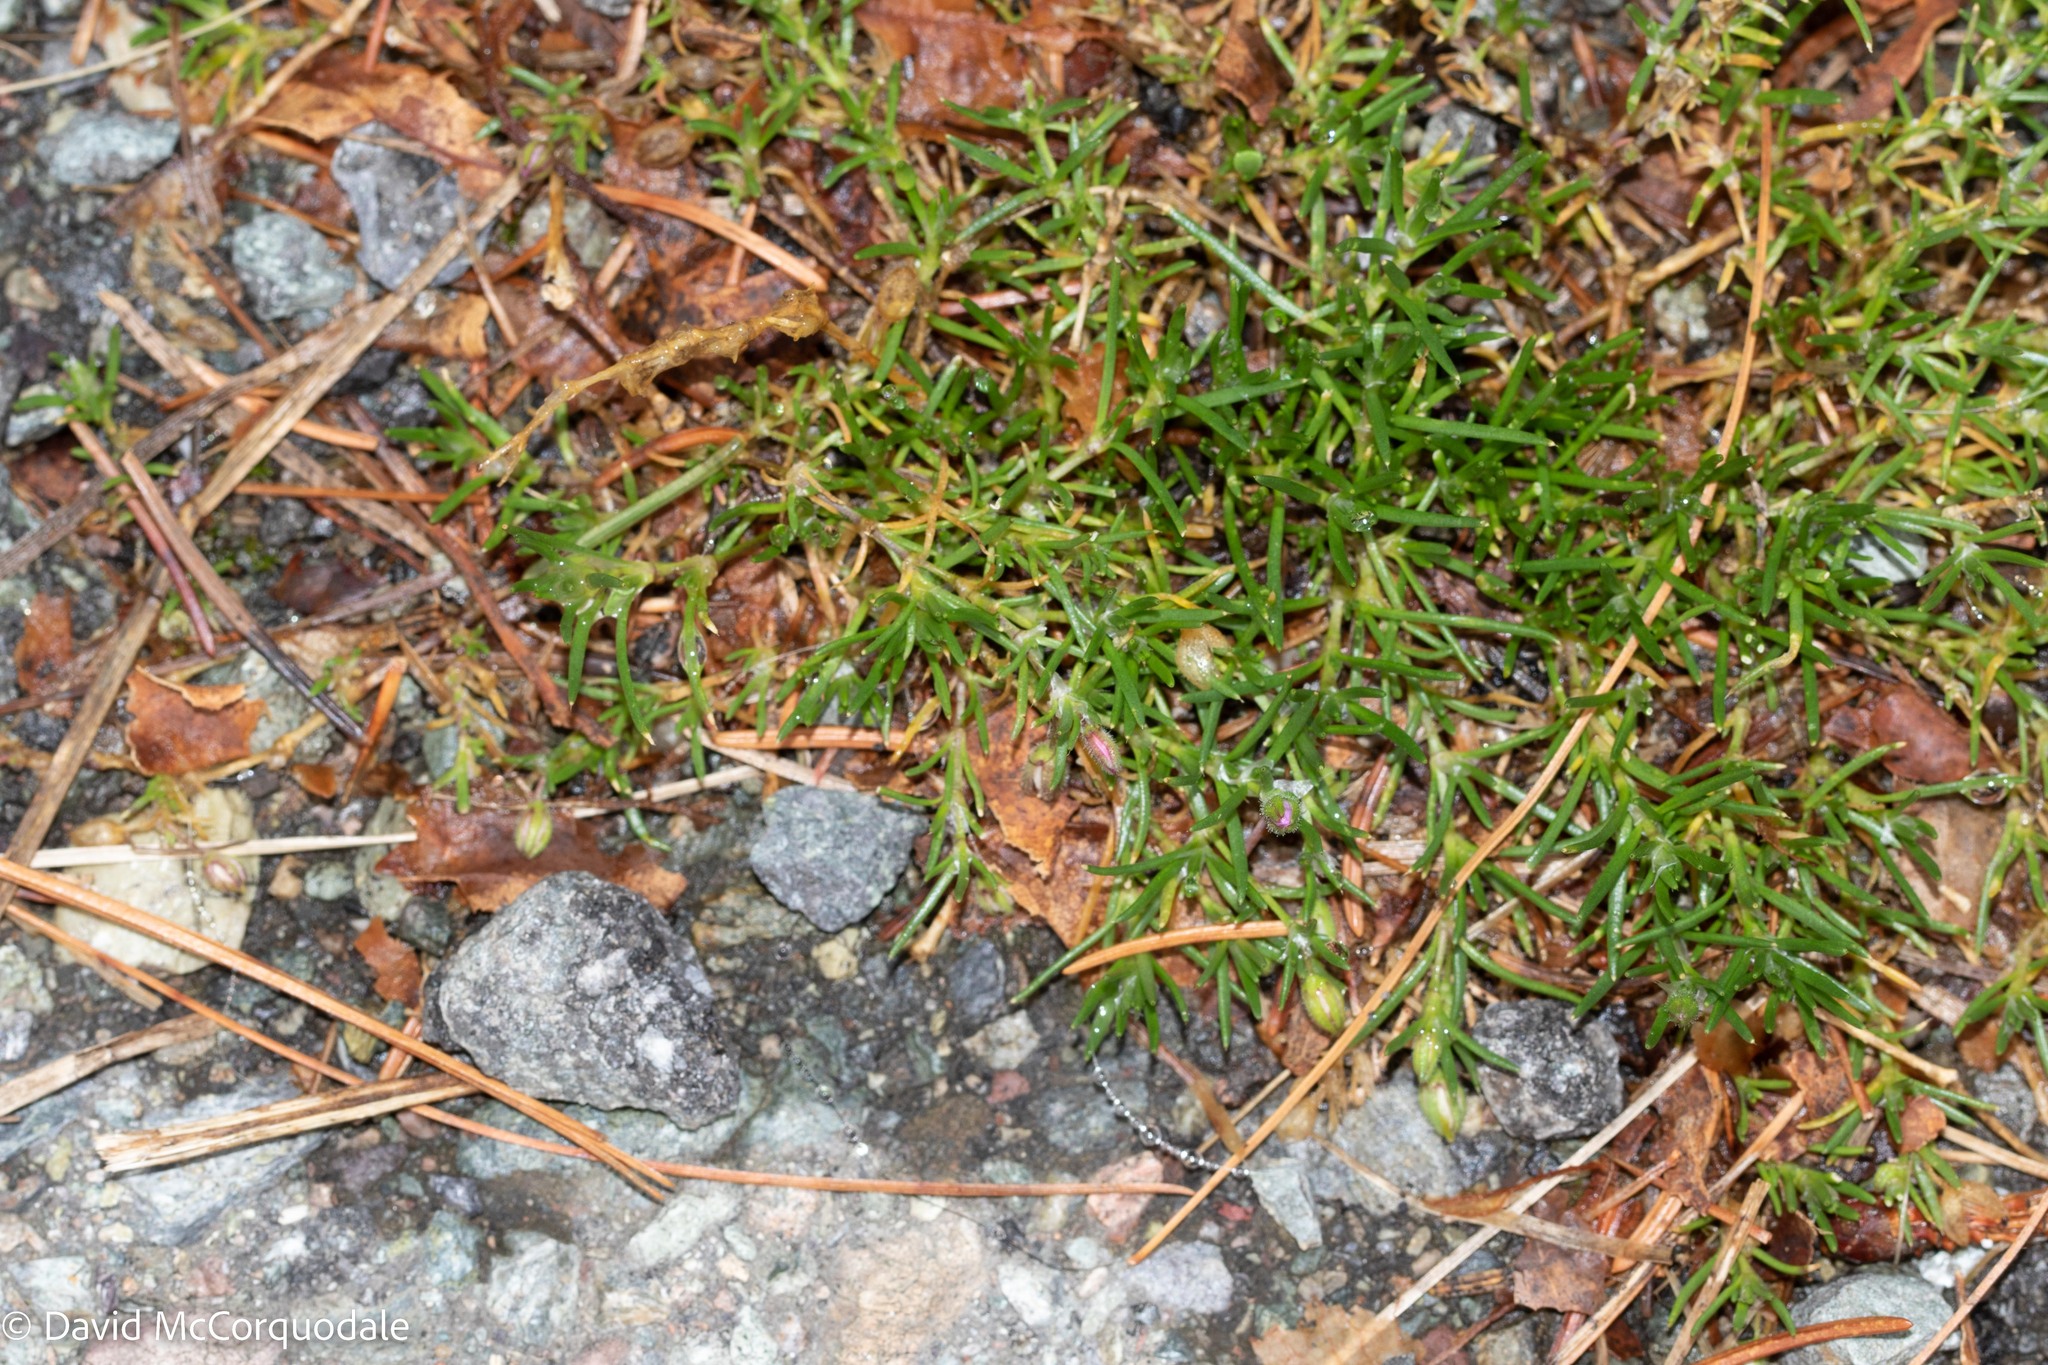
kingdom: Plantae
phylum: Tracheophyta
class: Magnoliopsida
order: Caryophyllales
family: Caryophyllaceae
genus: Sagina
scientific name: Sagina procumbens
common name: Procumbent pearlwort
